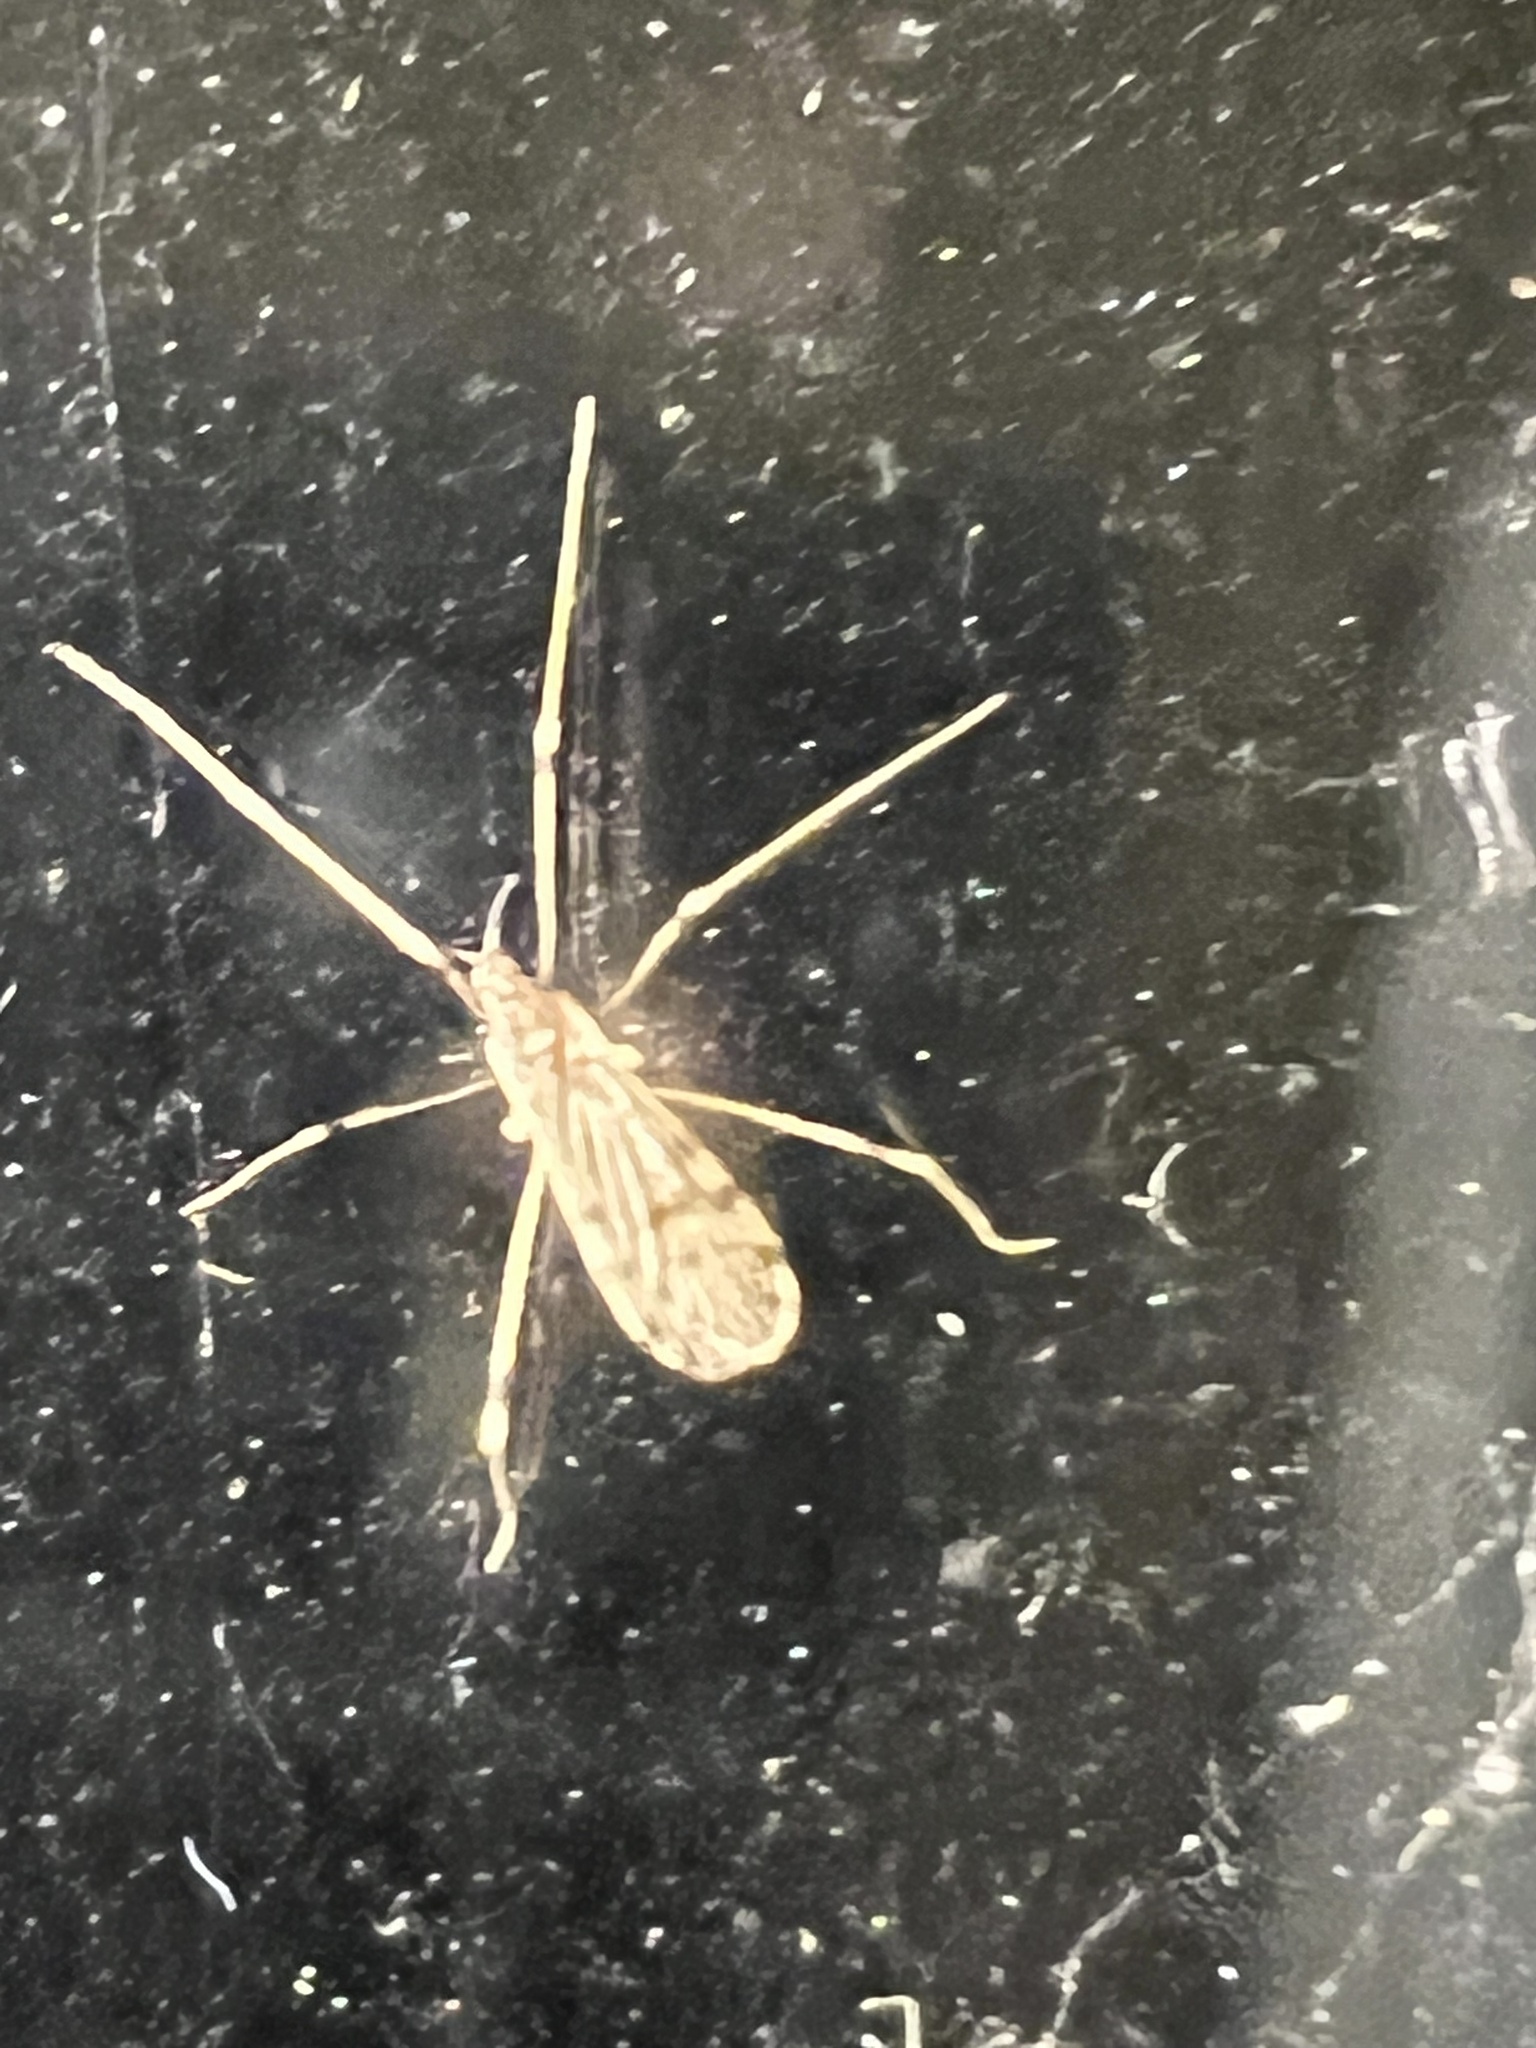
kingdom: Animalia
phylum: Arthropoda
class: Insecta
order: Diptera
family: Limoniidae
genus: Erioptera
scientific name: Erioptera parva
